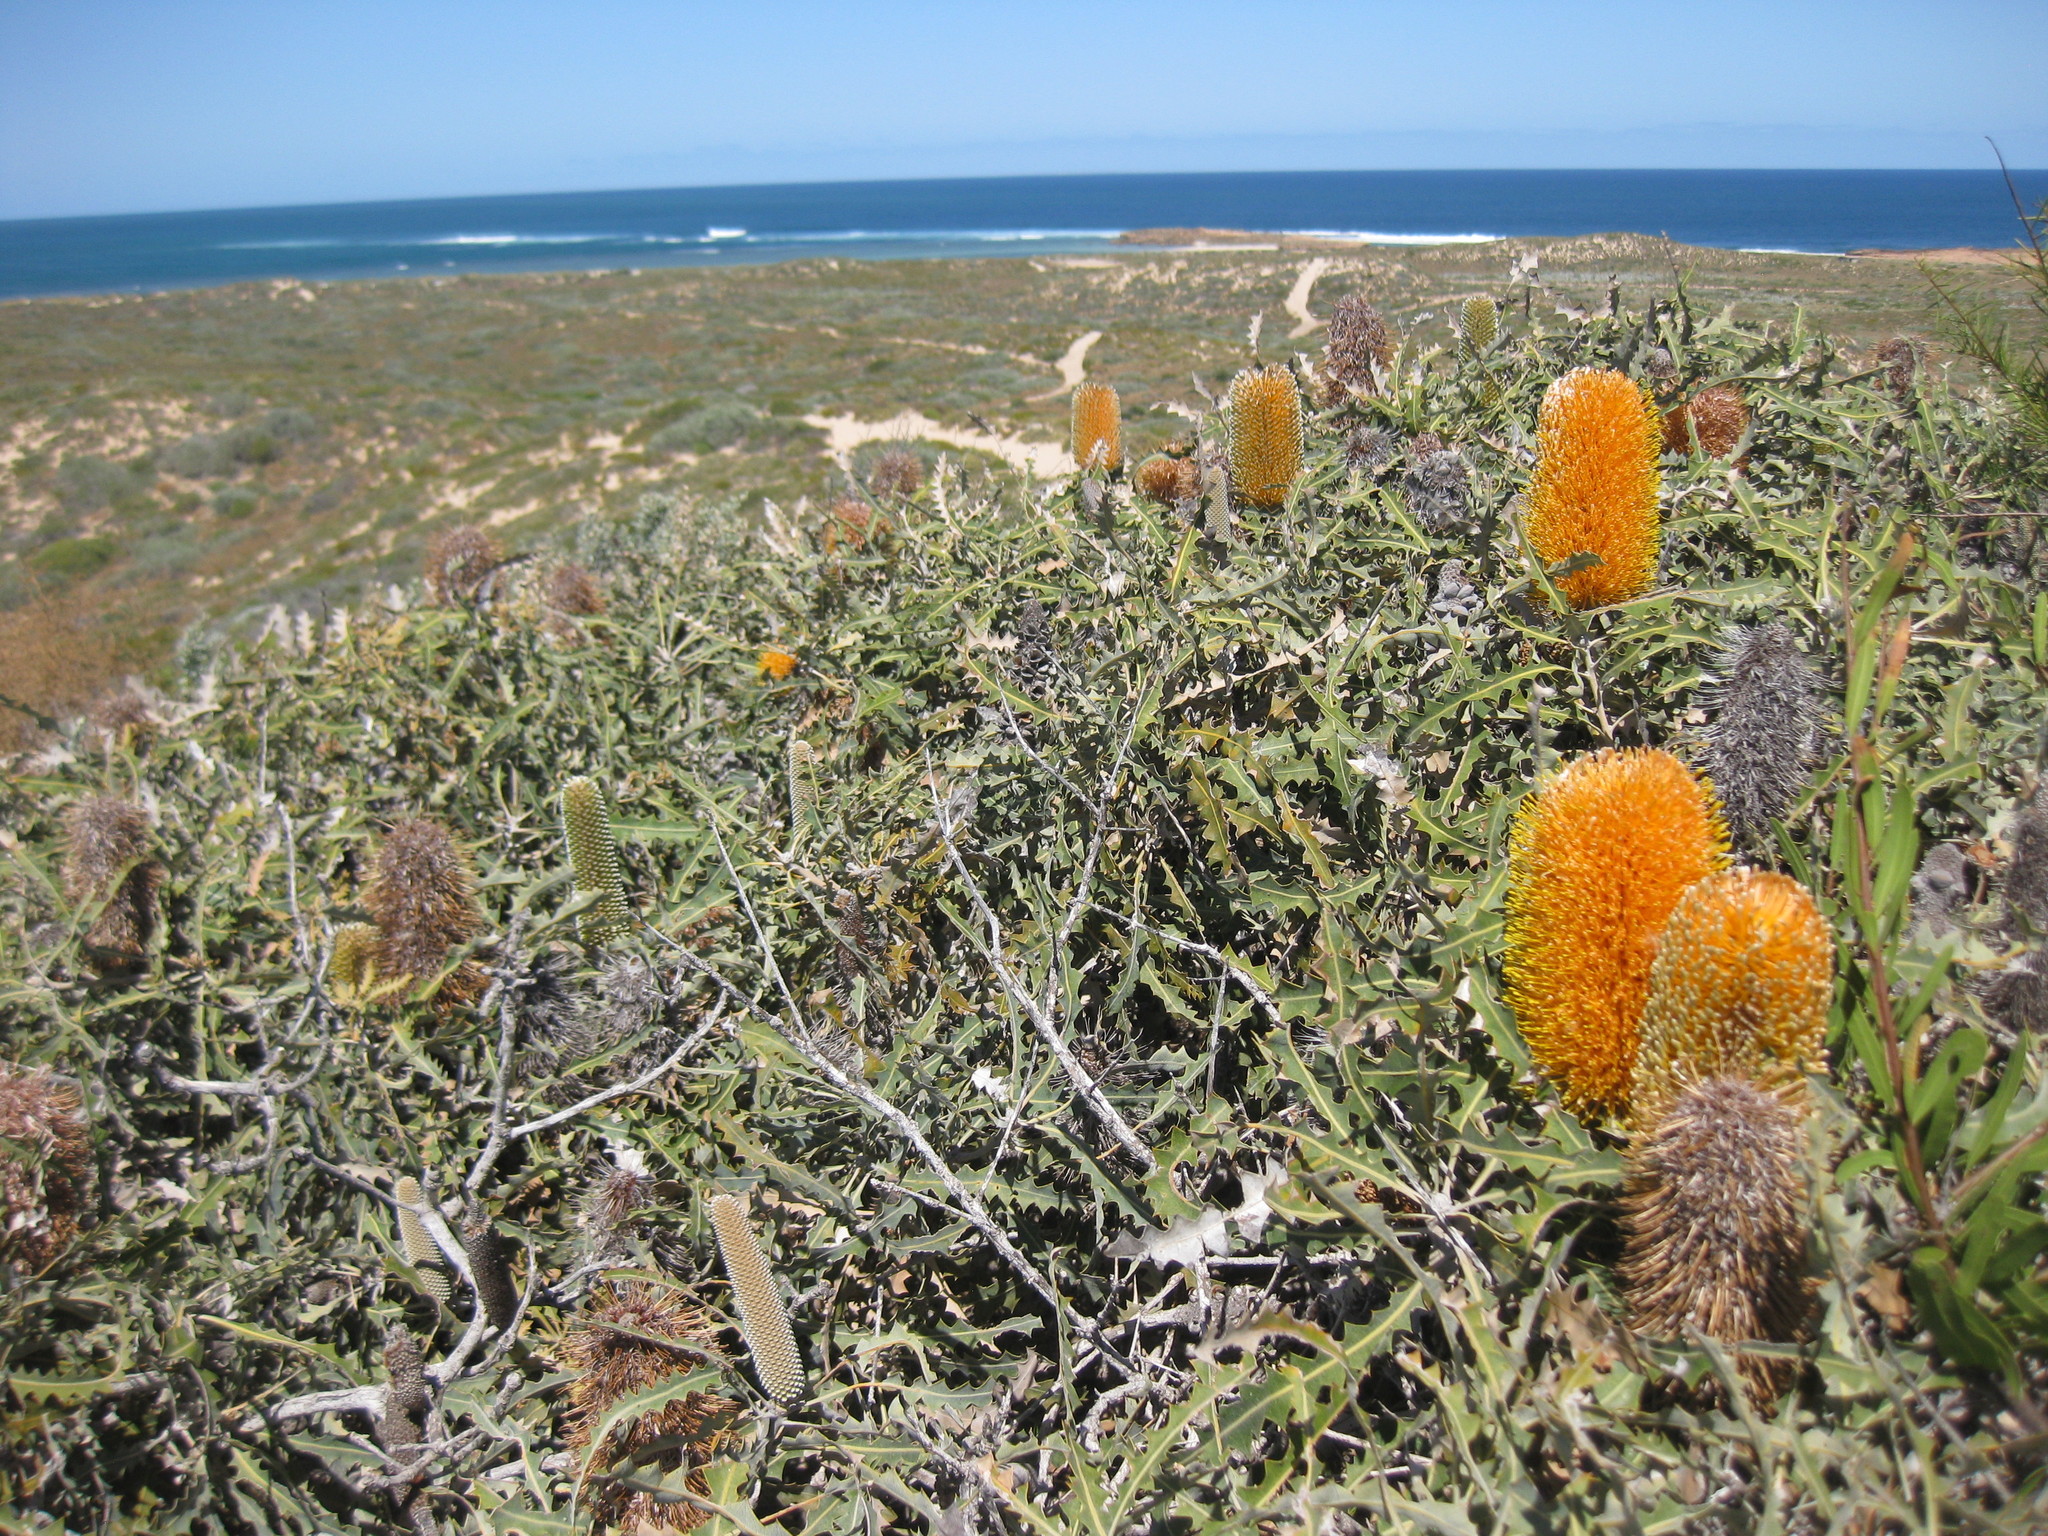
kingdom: Plantae
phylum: Tracheophyta
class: Magnoliopsida
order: Proteales
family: Proteaceae
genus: Banksia
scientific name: Banksia ashbyi
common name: Ashby's banksia
